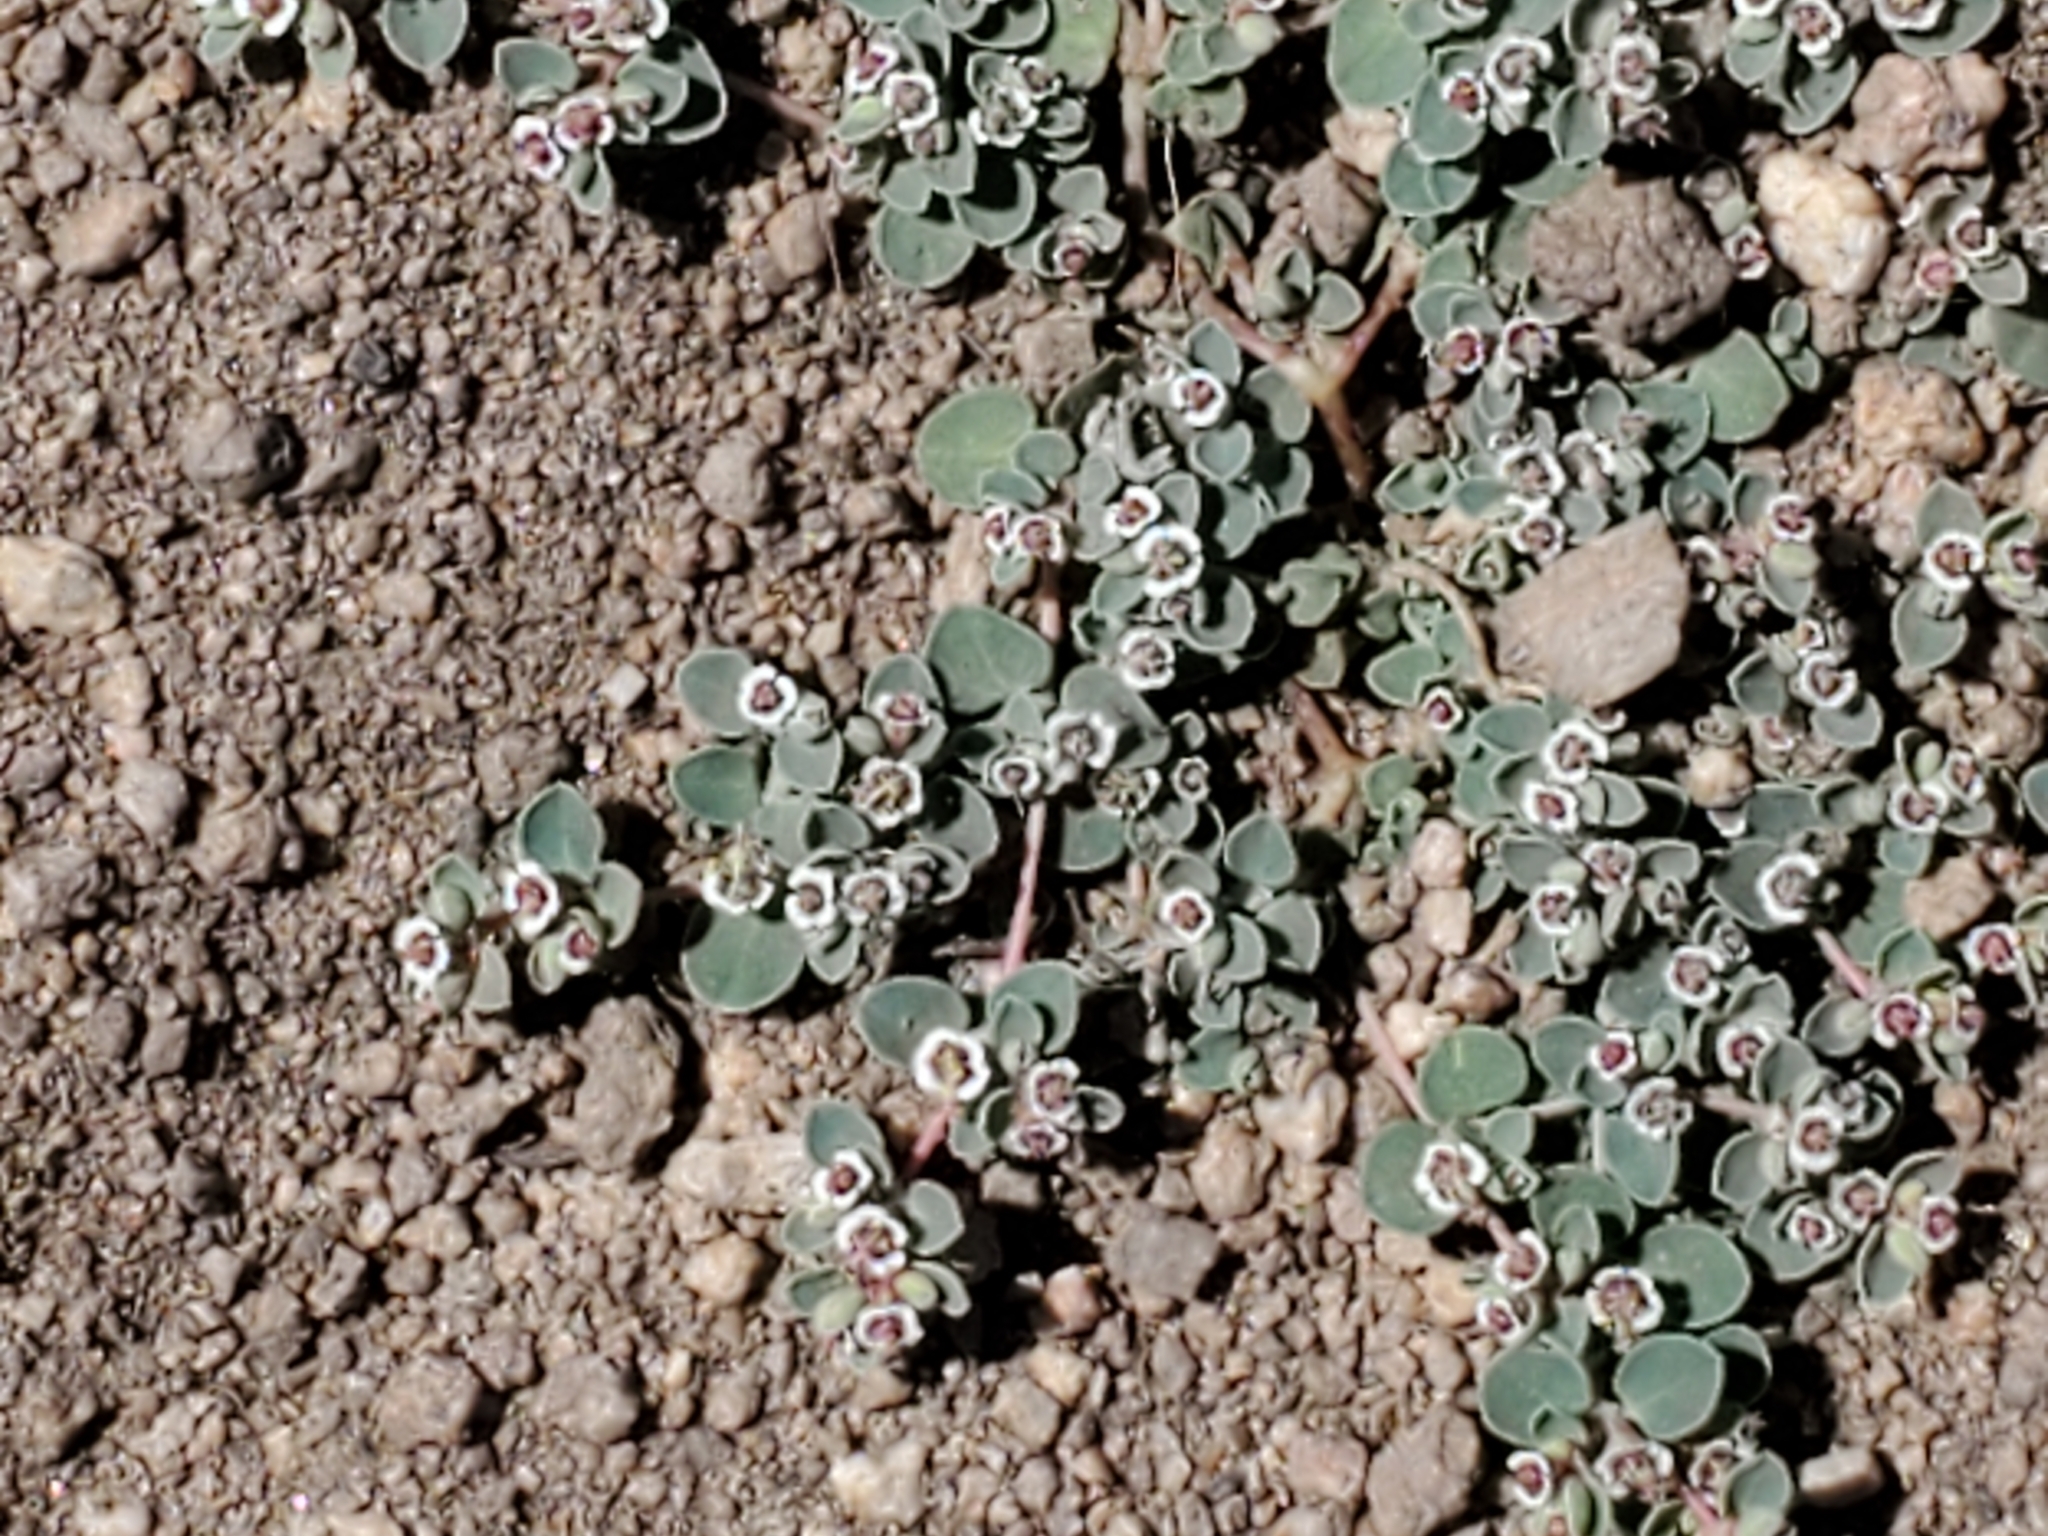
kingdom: Plantae
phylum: Tracheophyta
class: Magnoliopsida
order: Malpighiales
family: Euphorbiaceae
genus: Euphorbia
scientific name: Euphorbia albomarginata
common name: Whitemargin sandmat
